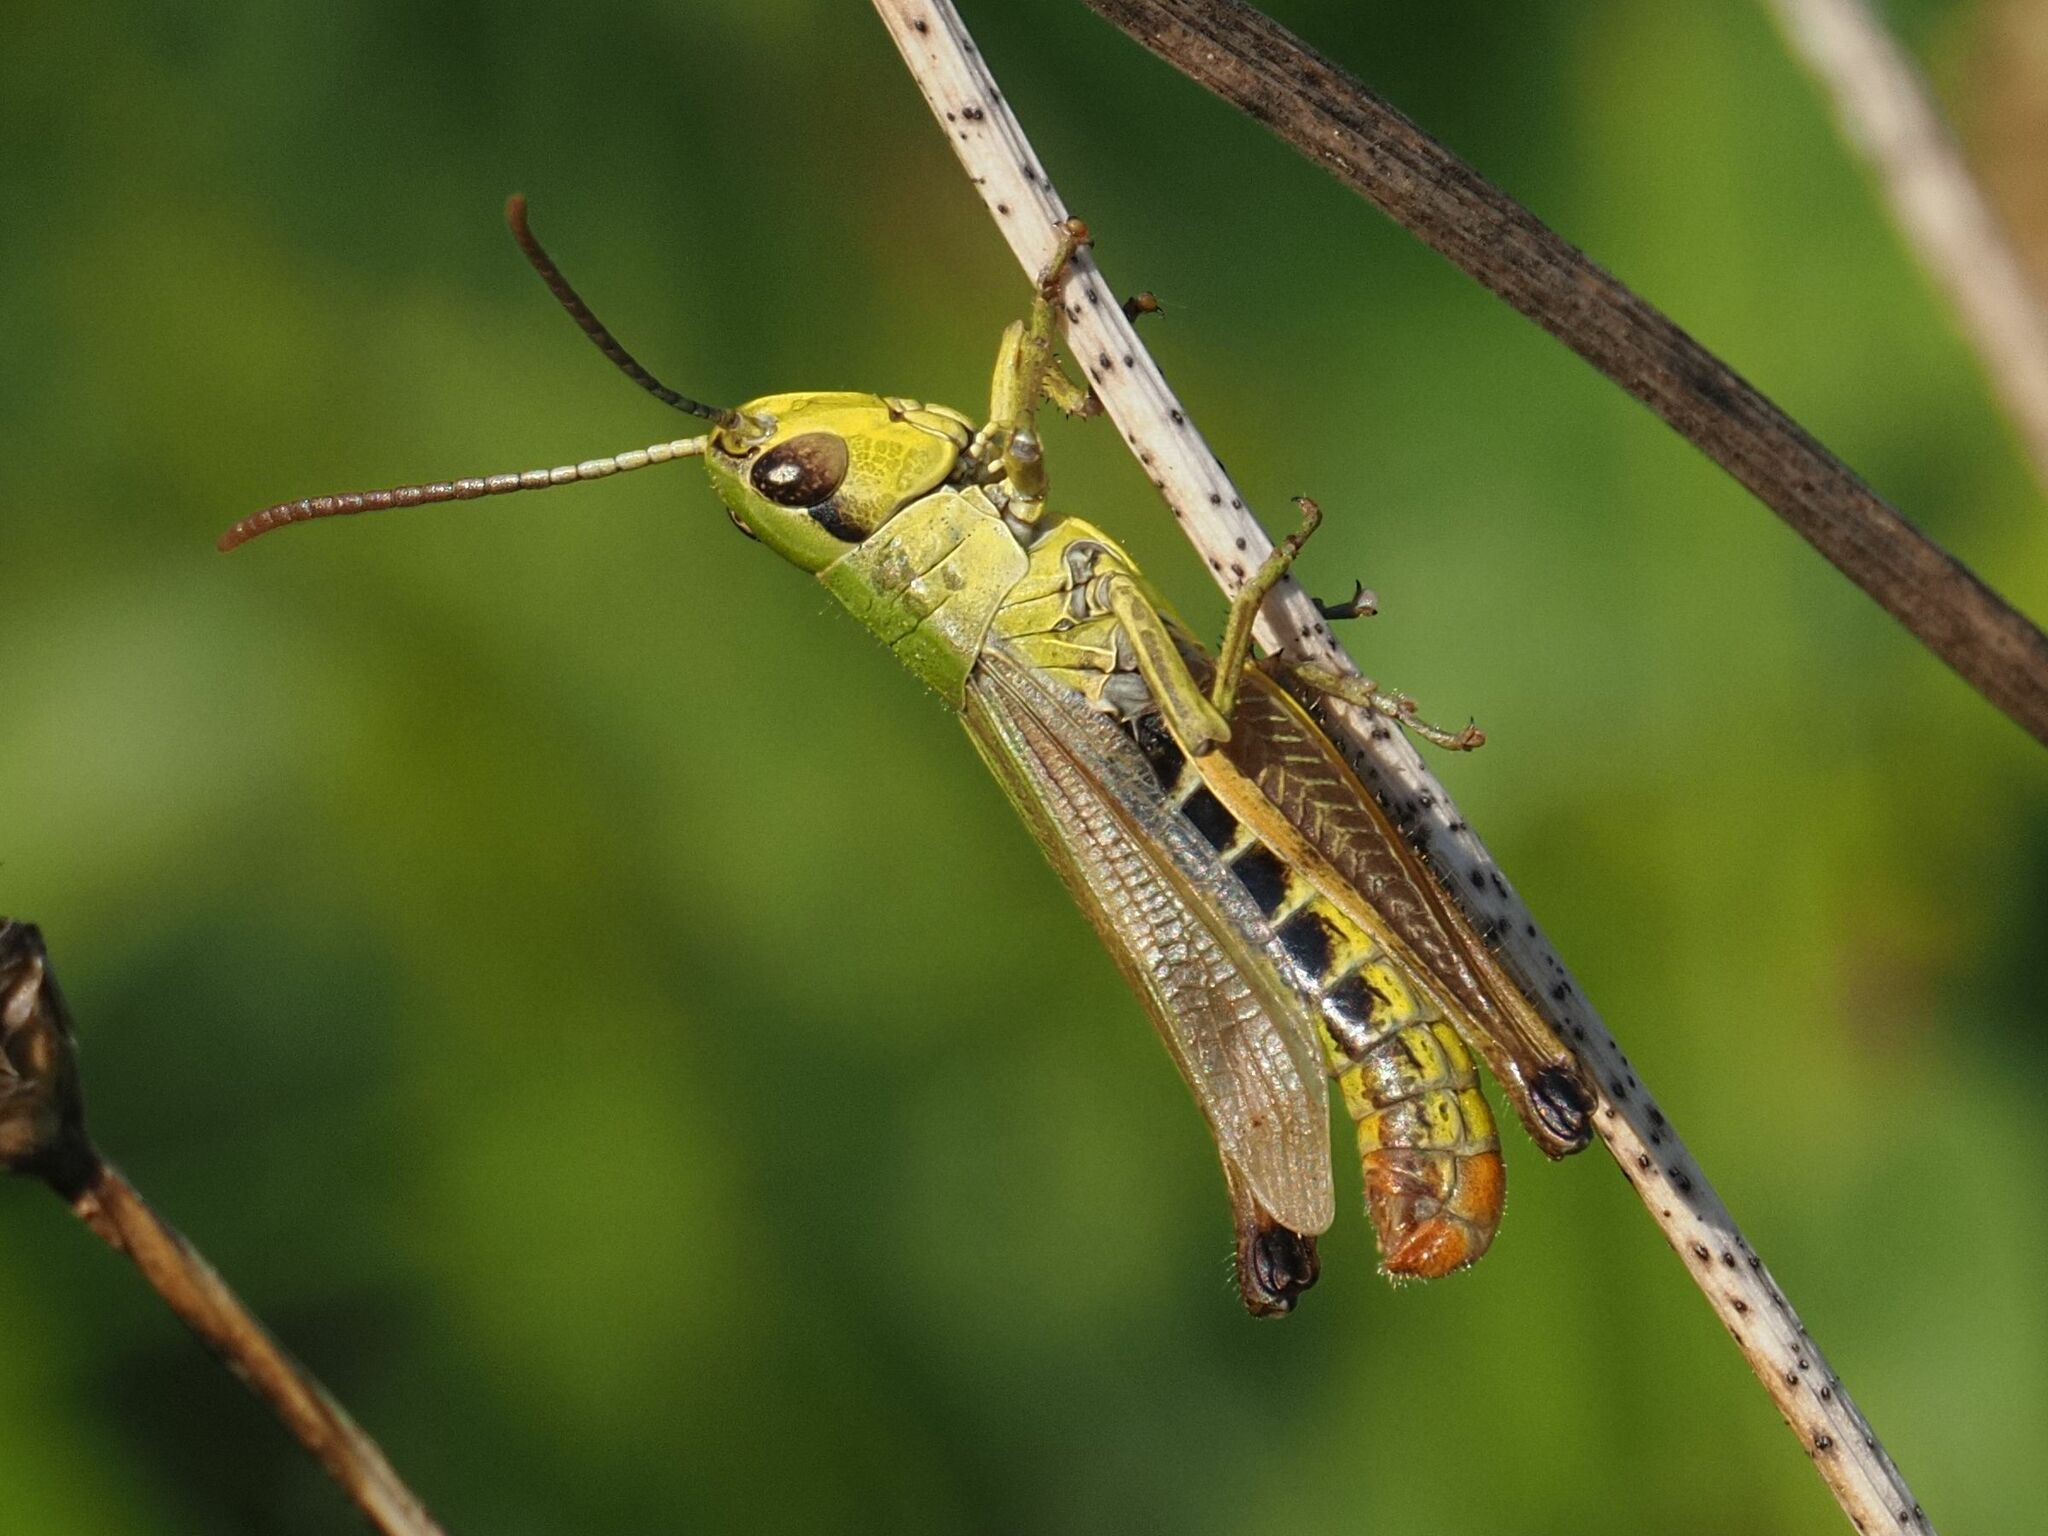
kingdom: Animalia
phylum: Arthropoda
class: Insecta
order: Orthoptera
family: Acrididae
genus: Pseudochorthippus
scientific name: Pseudochorthippus parallelus
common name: Meadow grasshopper
